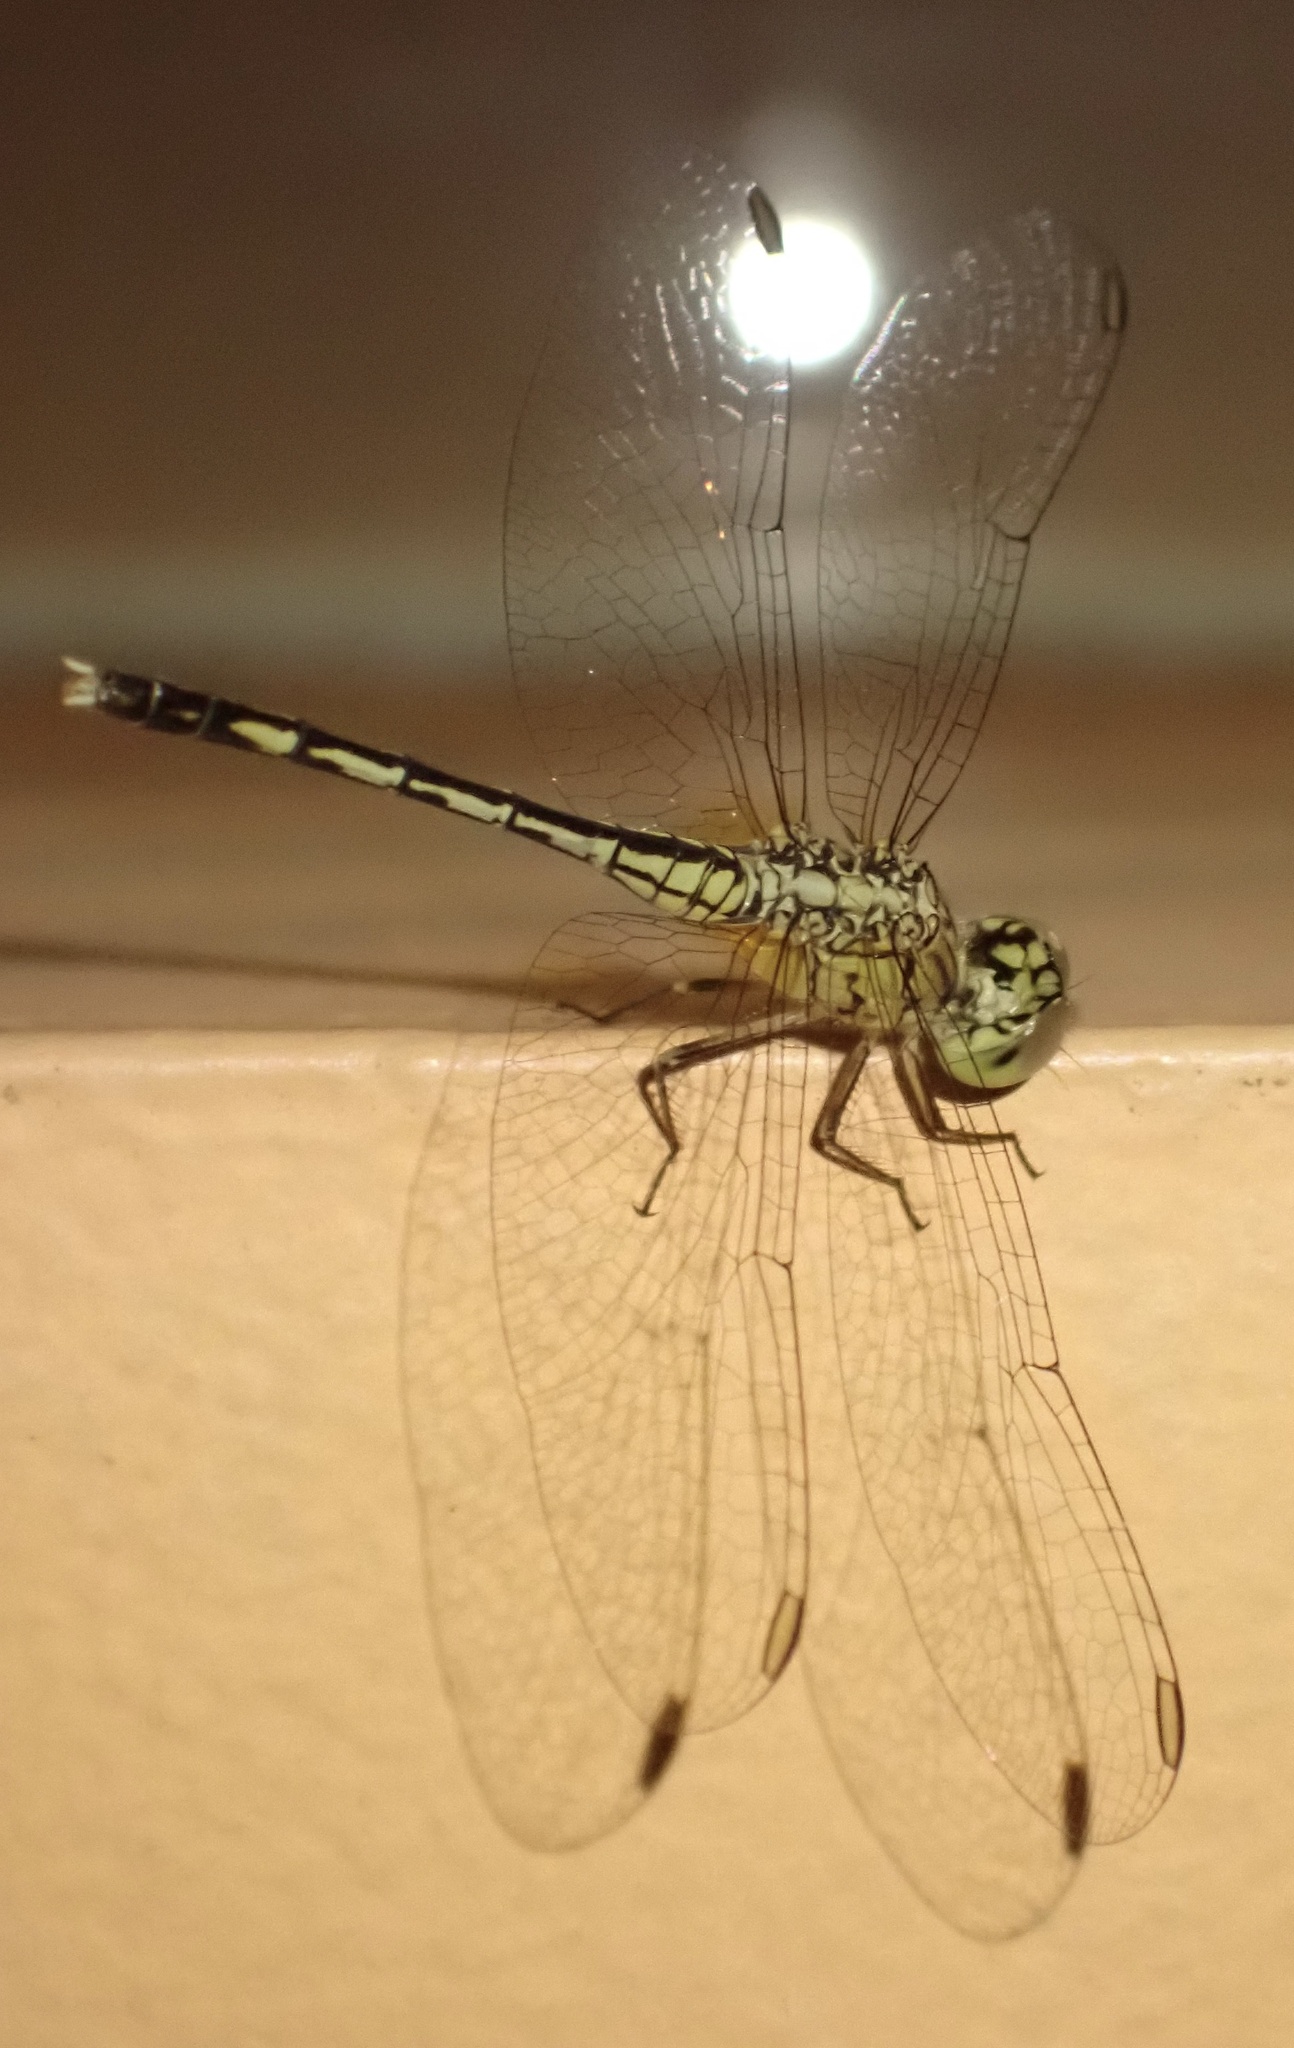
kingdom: Animalia
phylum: Arthropoda
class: Insecta
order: Odonata
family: Libellulidae
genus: Diplacodes
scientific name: Diplacodes trivialis
